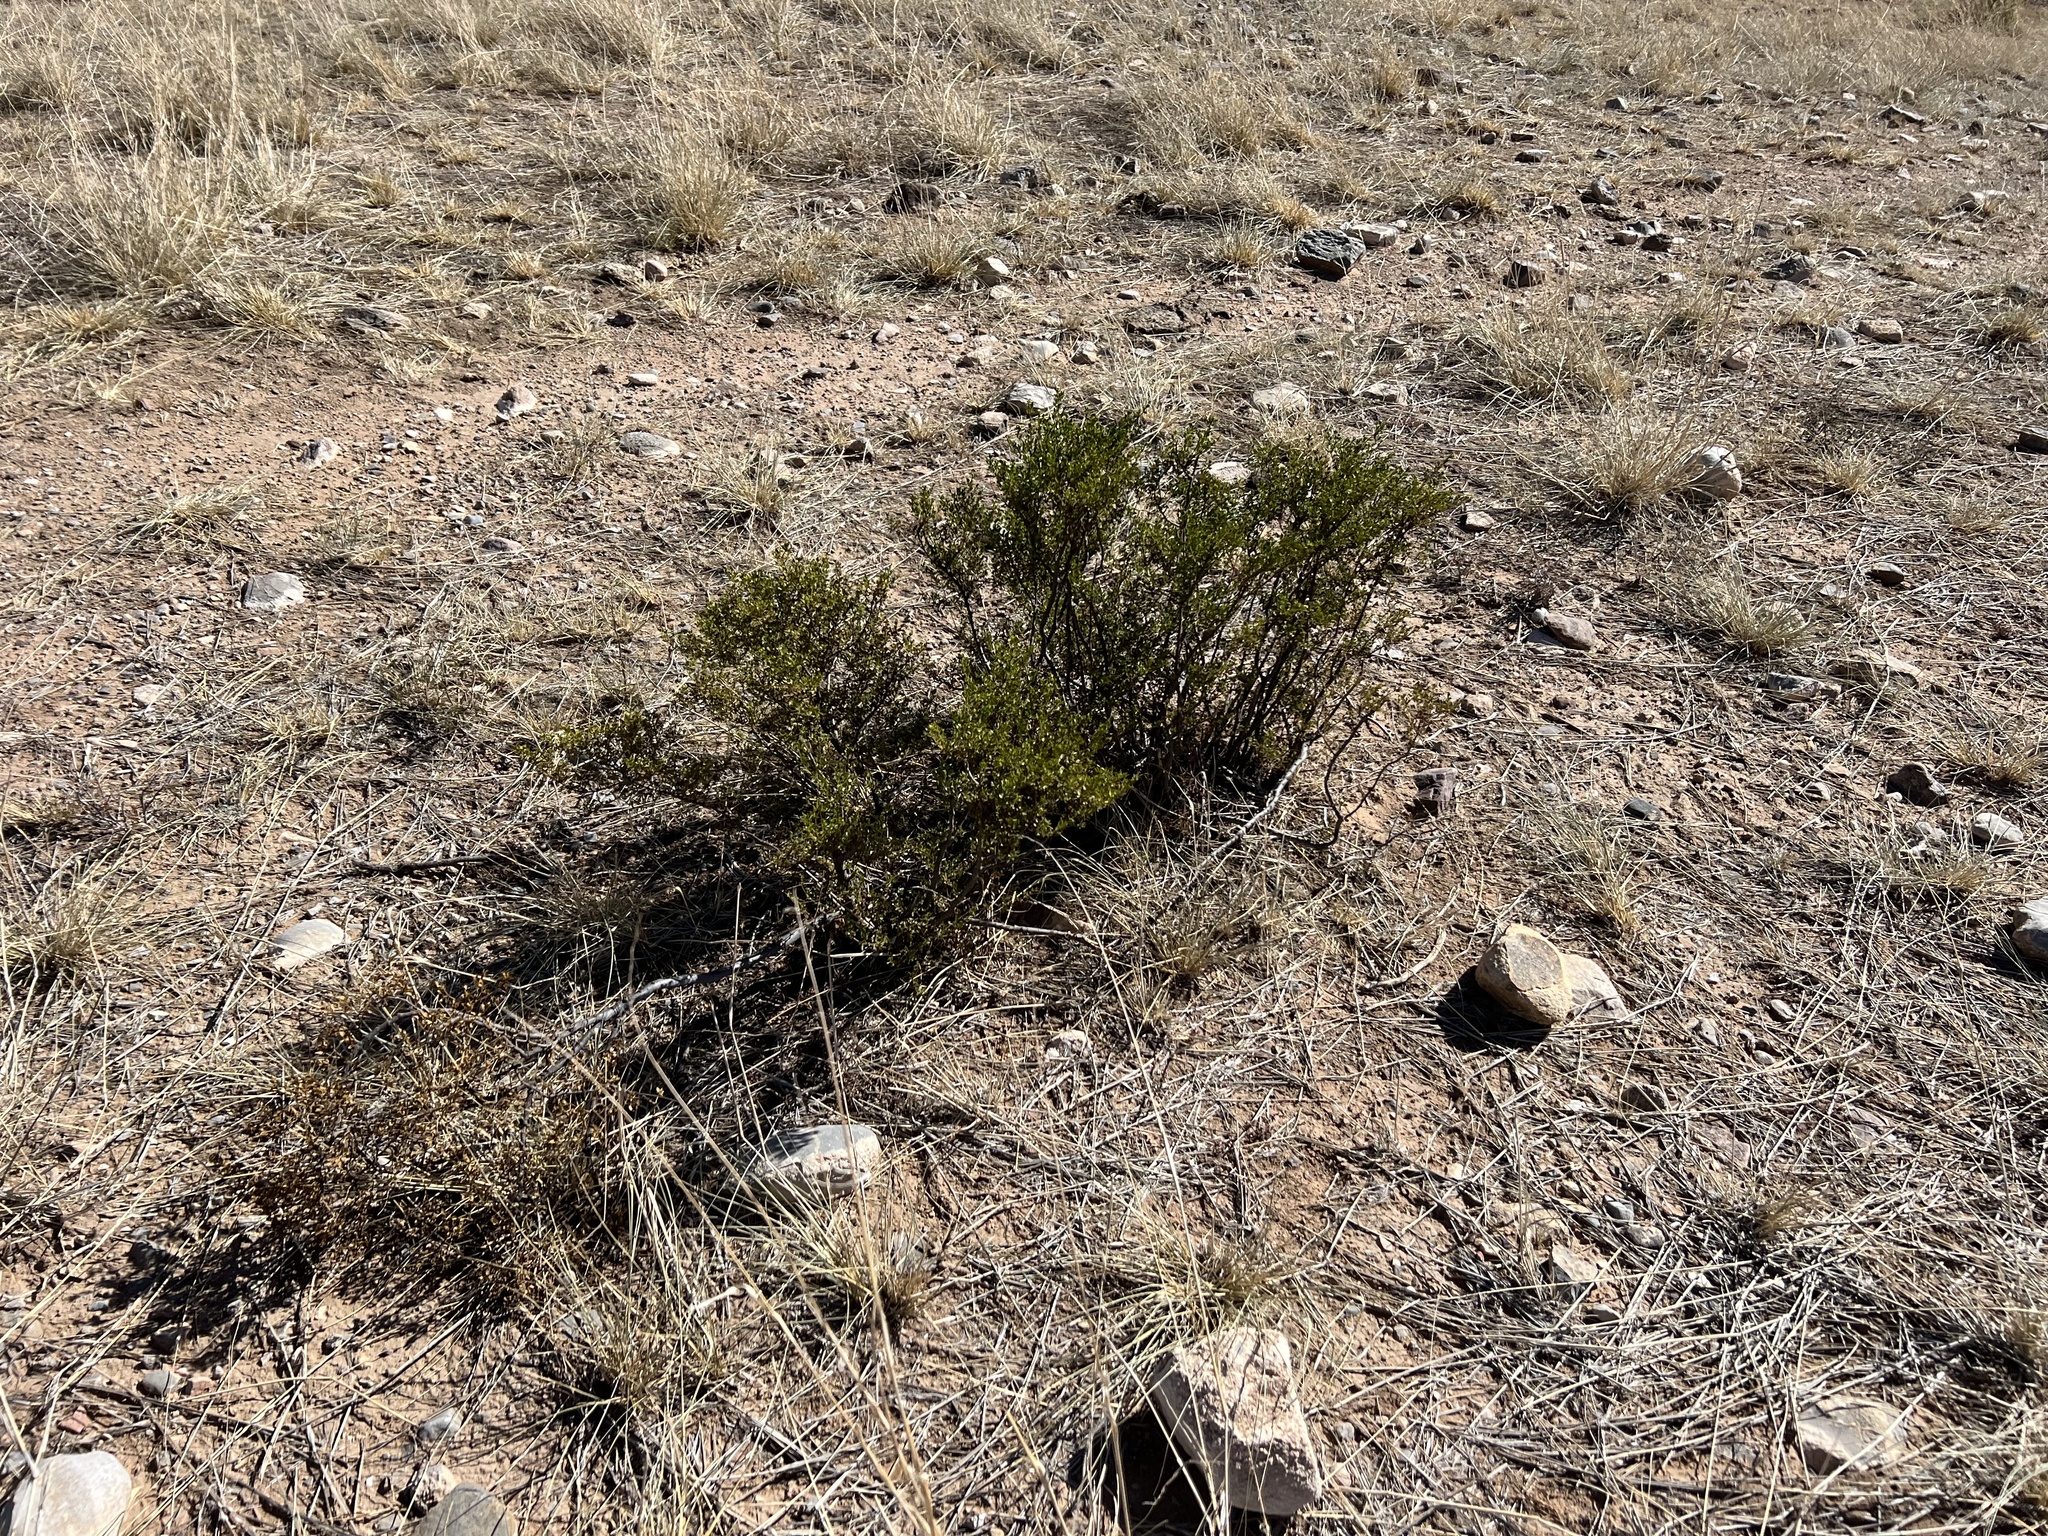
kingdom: Plantae
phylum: Tracheophyta
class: Magnoliopsida
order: Zygophyllales
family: Zygophyllaceae
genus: Larrea
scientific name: Larrea tridentata
